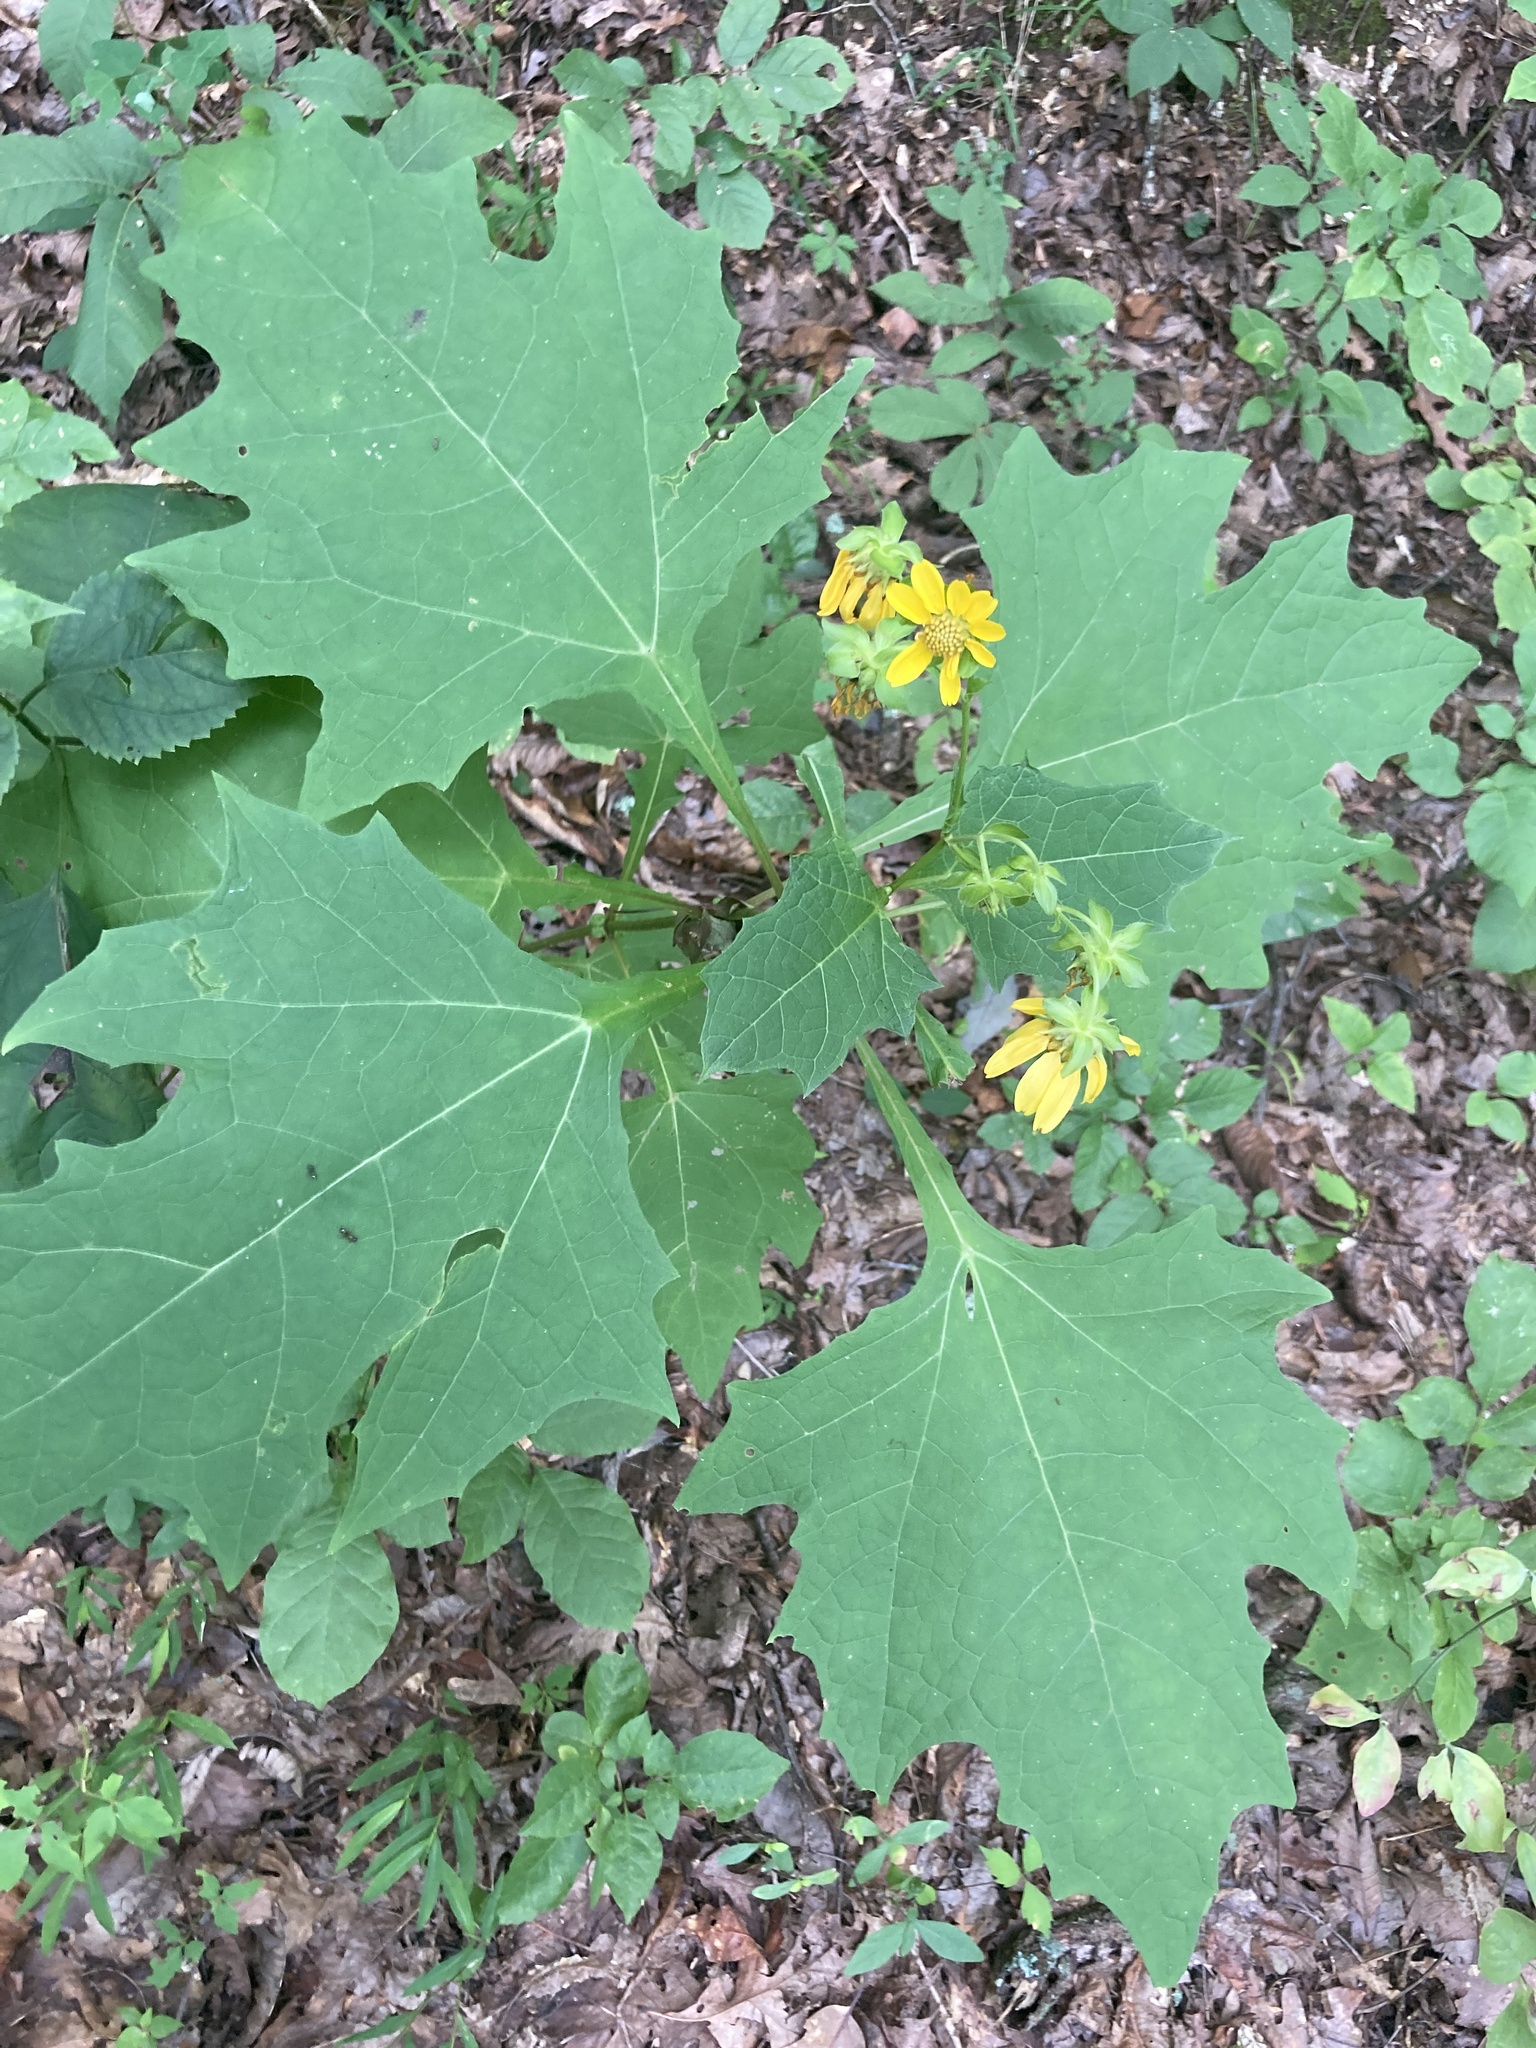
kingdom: Plantae
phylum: Tracheophyta
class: Magnoliopsida
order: Asterales
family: Asteraceae
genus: Smallanthus
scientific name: Smallanthus uvedalia
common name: Bear's-foot
